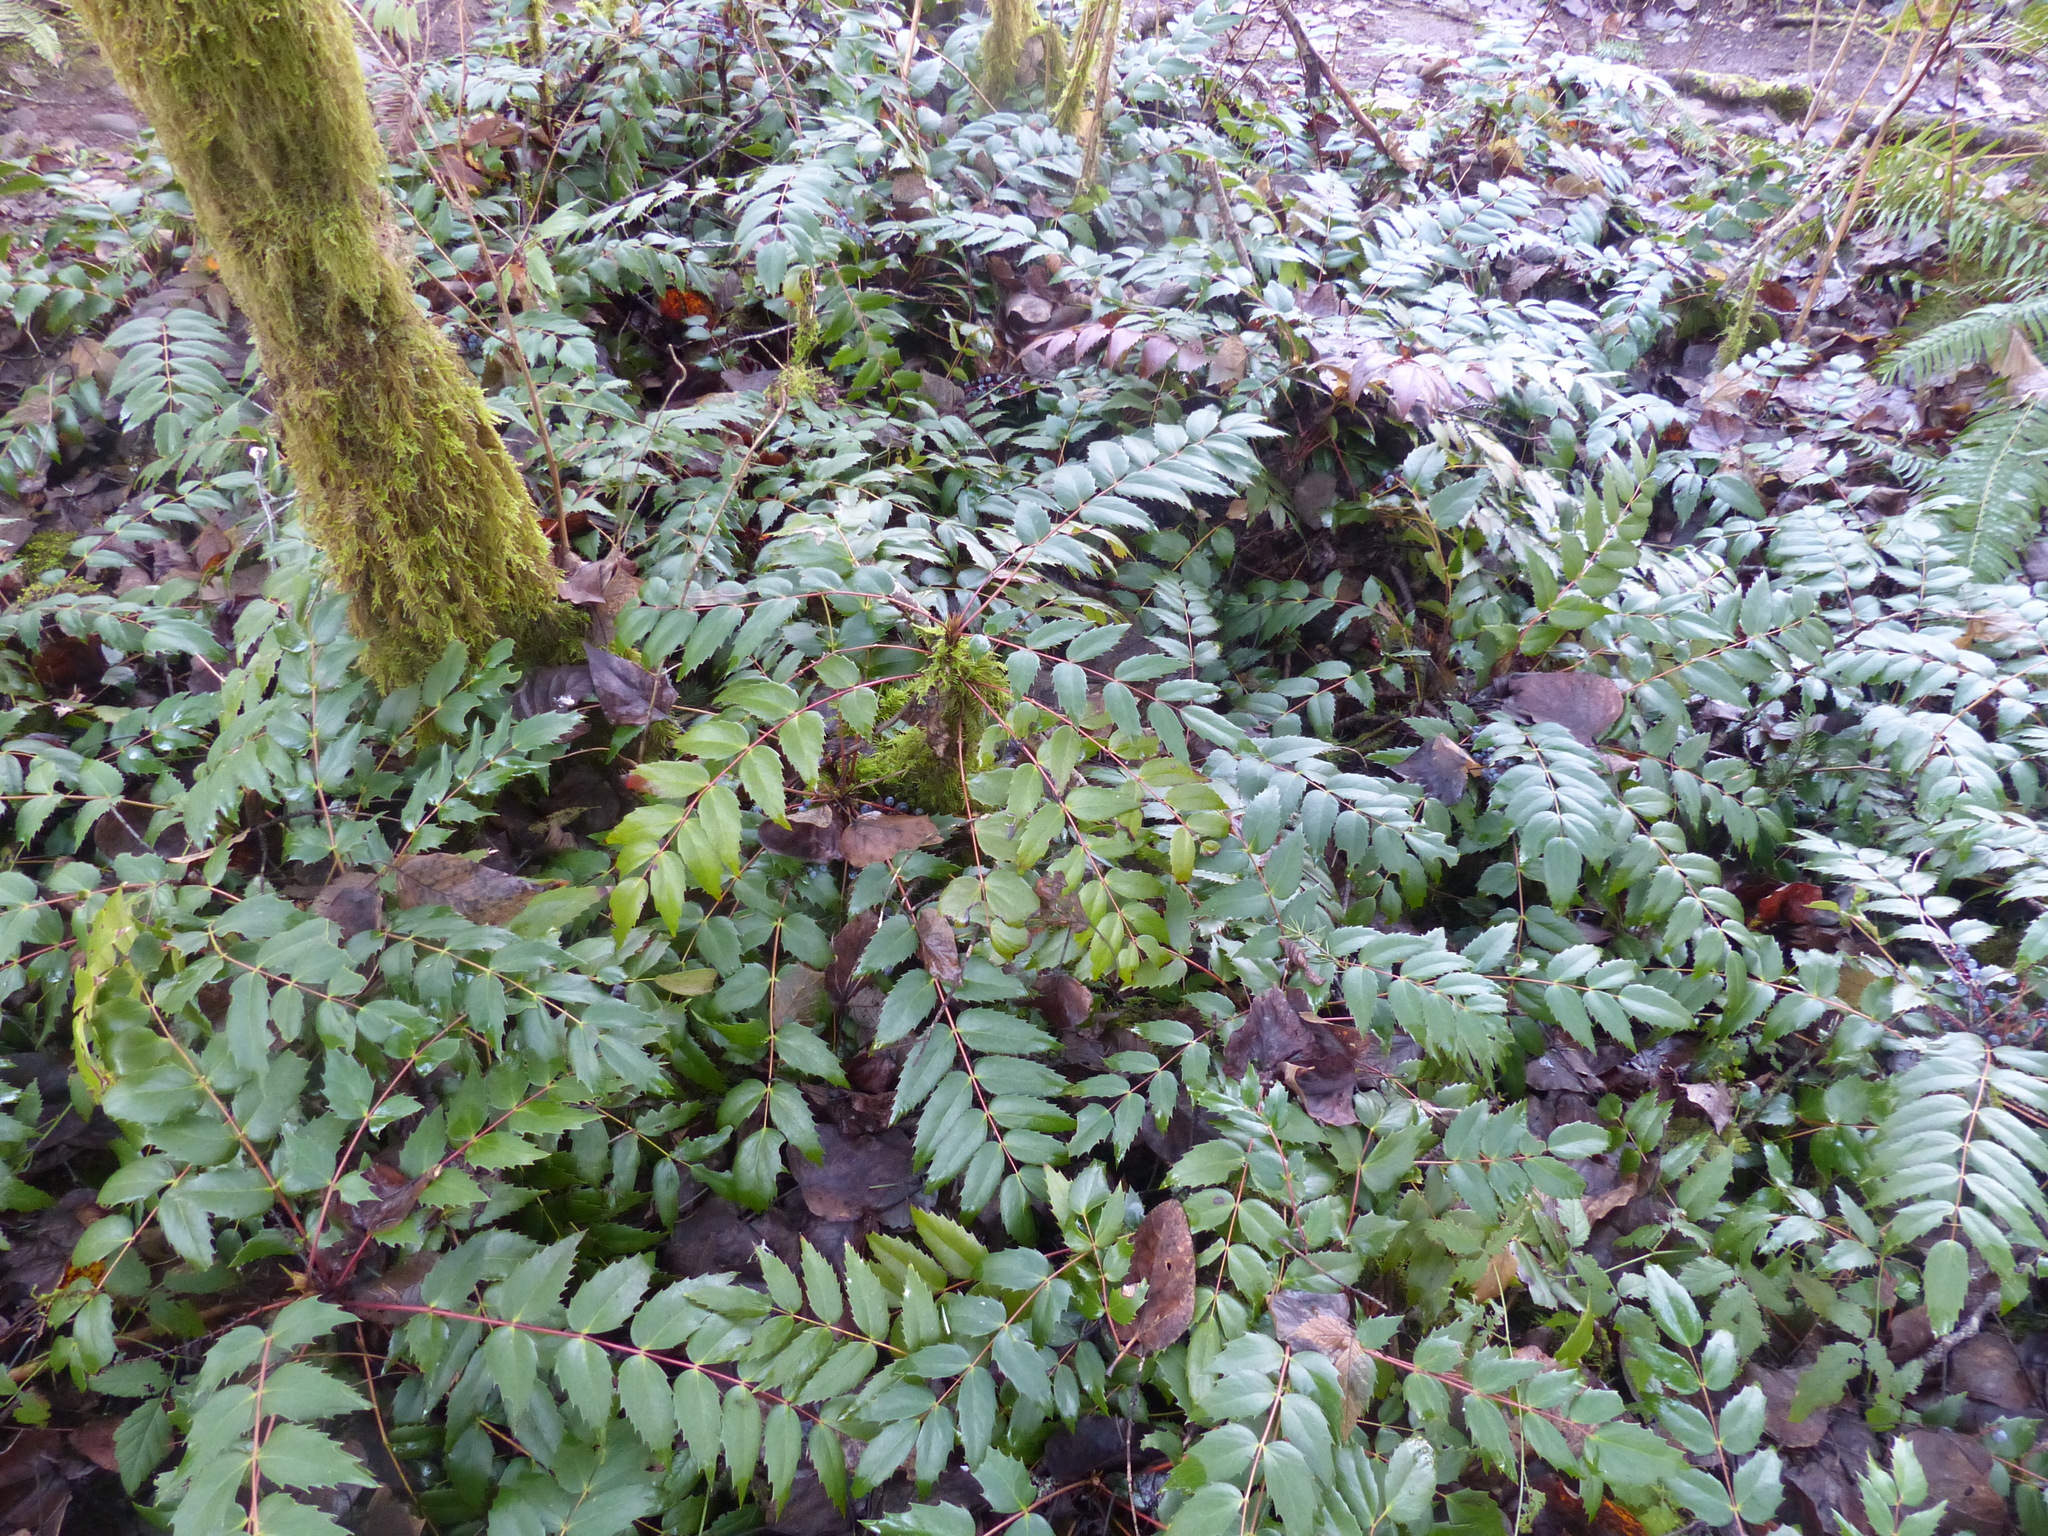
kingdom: Plantae
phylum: Tracheophyta
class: Magnoliopsida
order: Ranunculales
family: Berberidaceae
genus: Mahonia
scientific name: Mahonia nervosa
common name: Cascade oregon-grape
